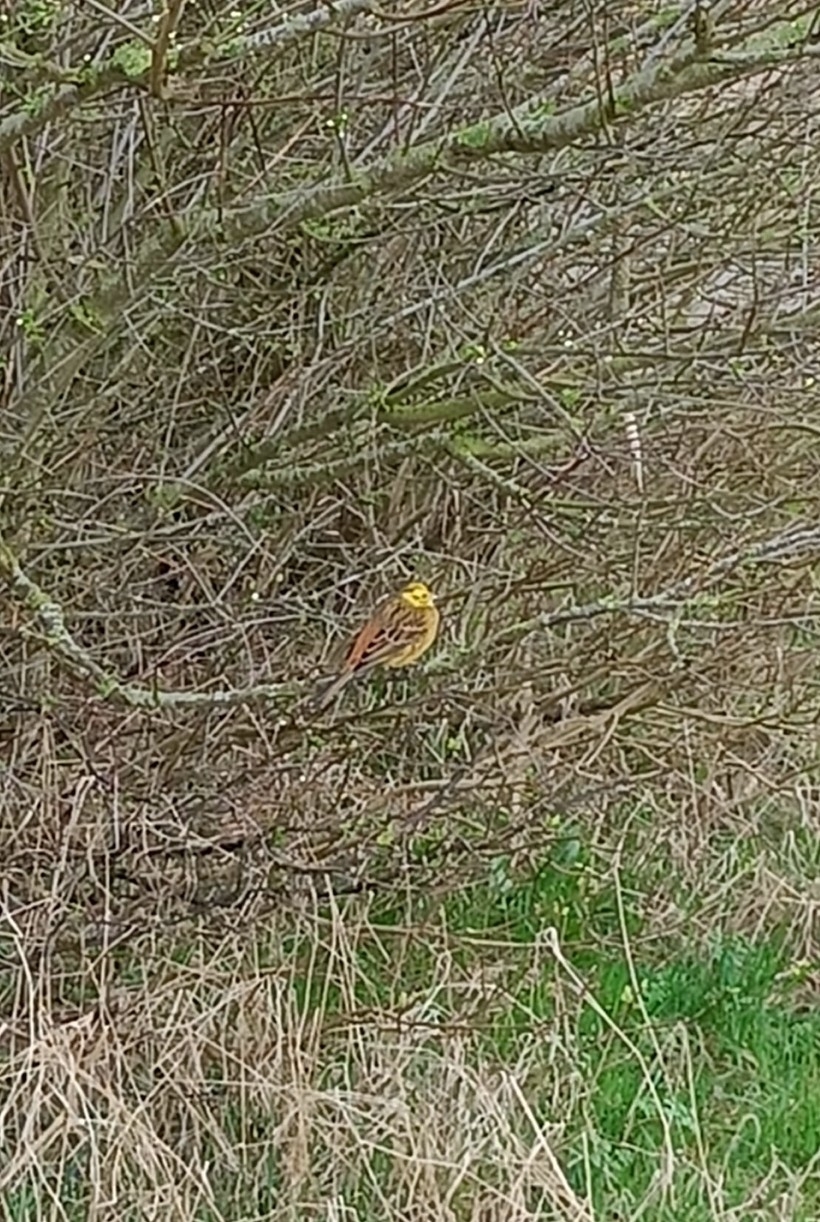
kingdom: Animalia
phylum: Chordata
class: Aves
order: Passeriformes
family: Emberizidae
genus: Emberiza
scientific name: Emberiza citrinella
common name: Yellowhammer
